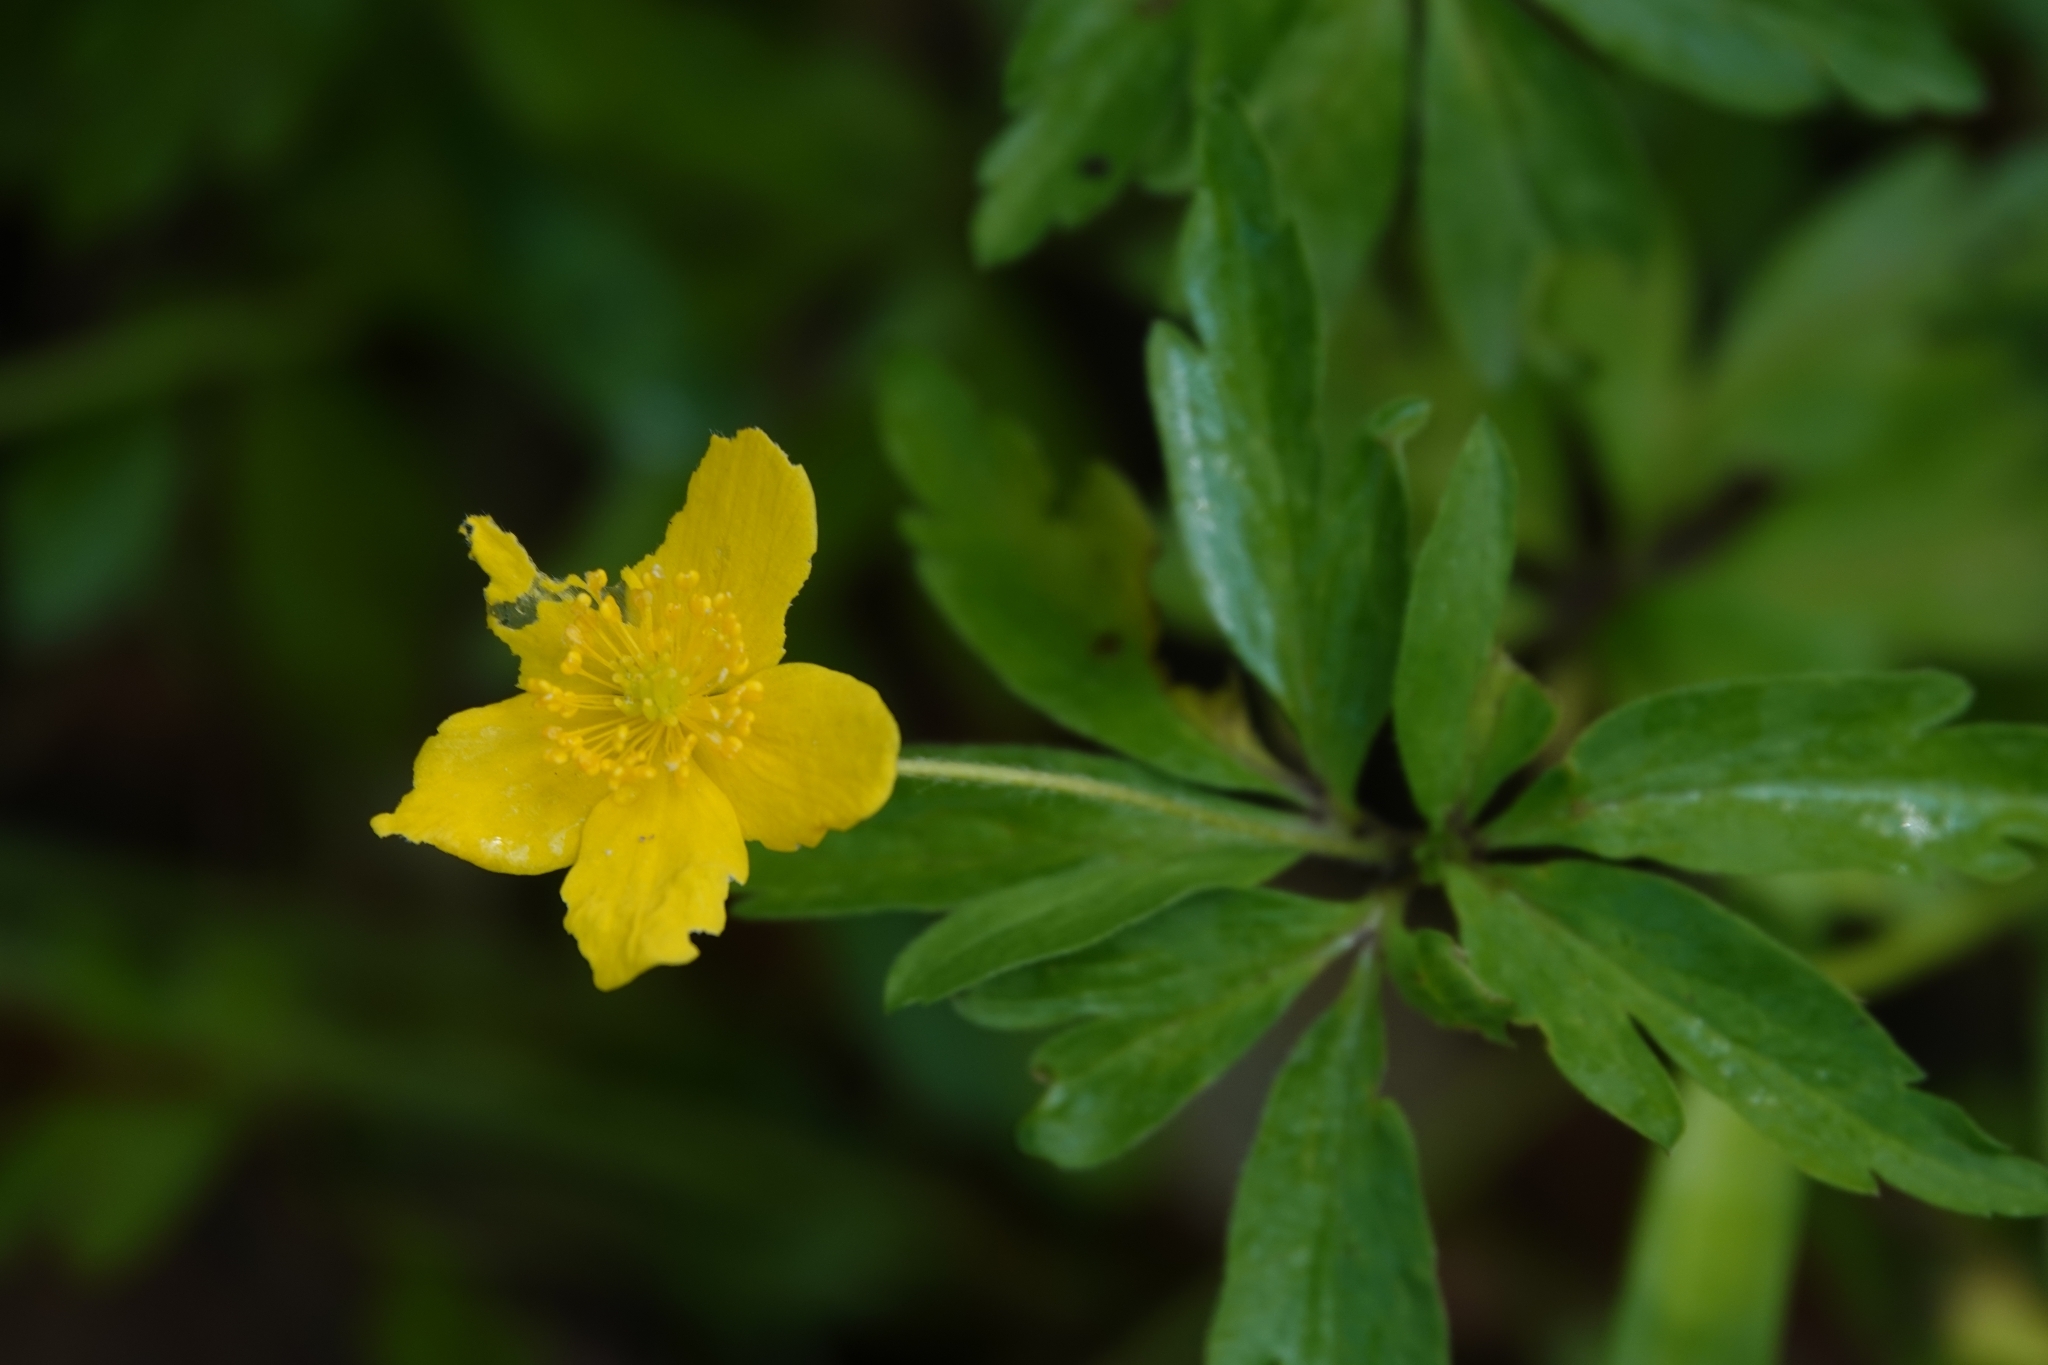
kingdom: Plantae
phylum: Tracheophyta
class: Magnoliopsida
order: Ranunculales
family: Ranunculaceae
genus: Anemone
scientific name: Anemone ranunculoides
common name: Yellow anemone
